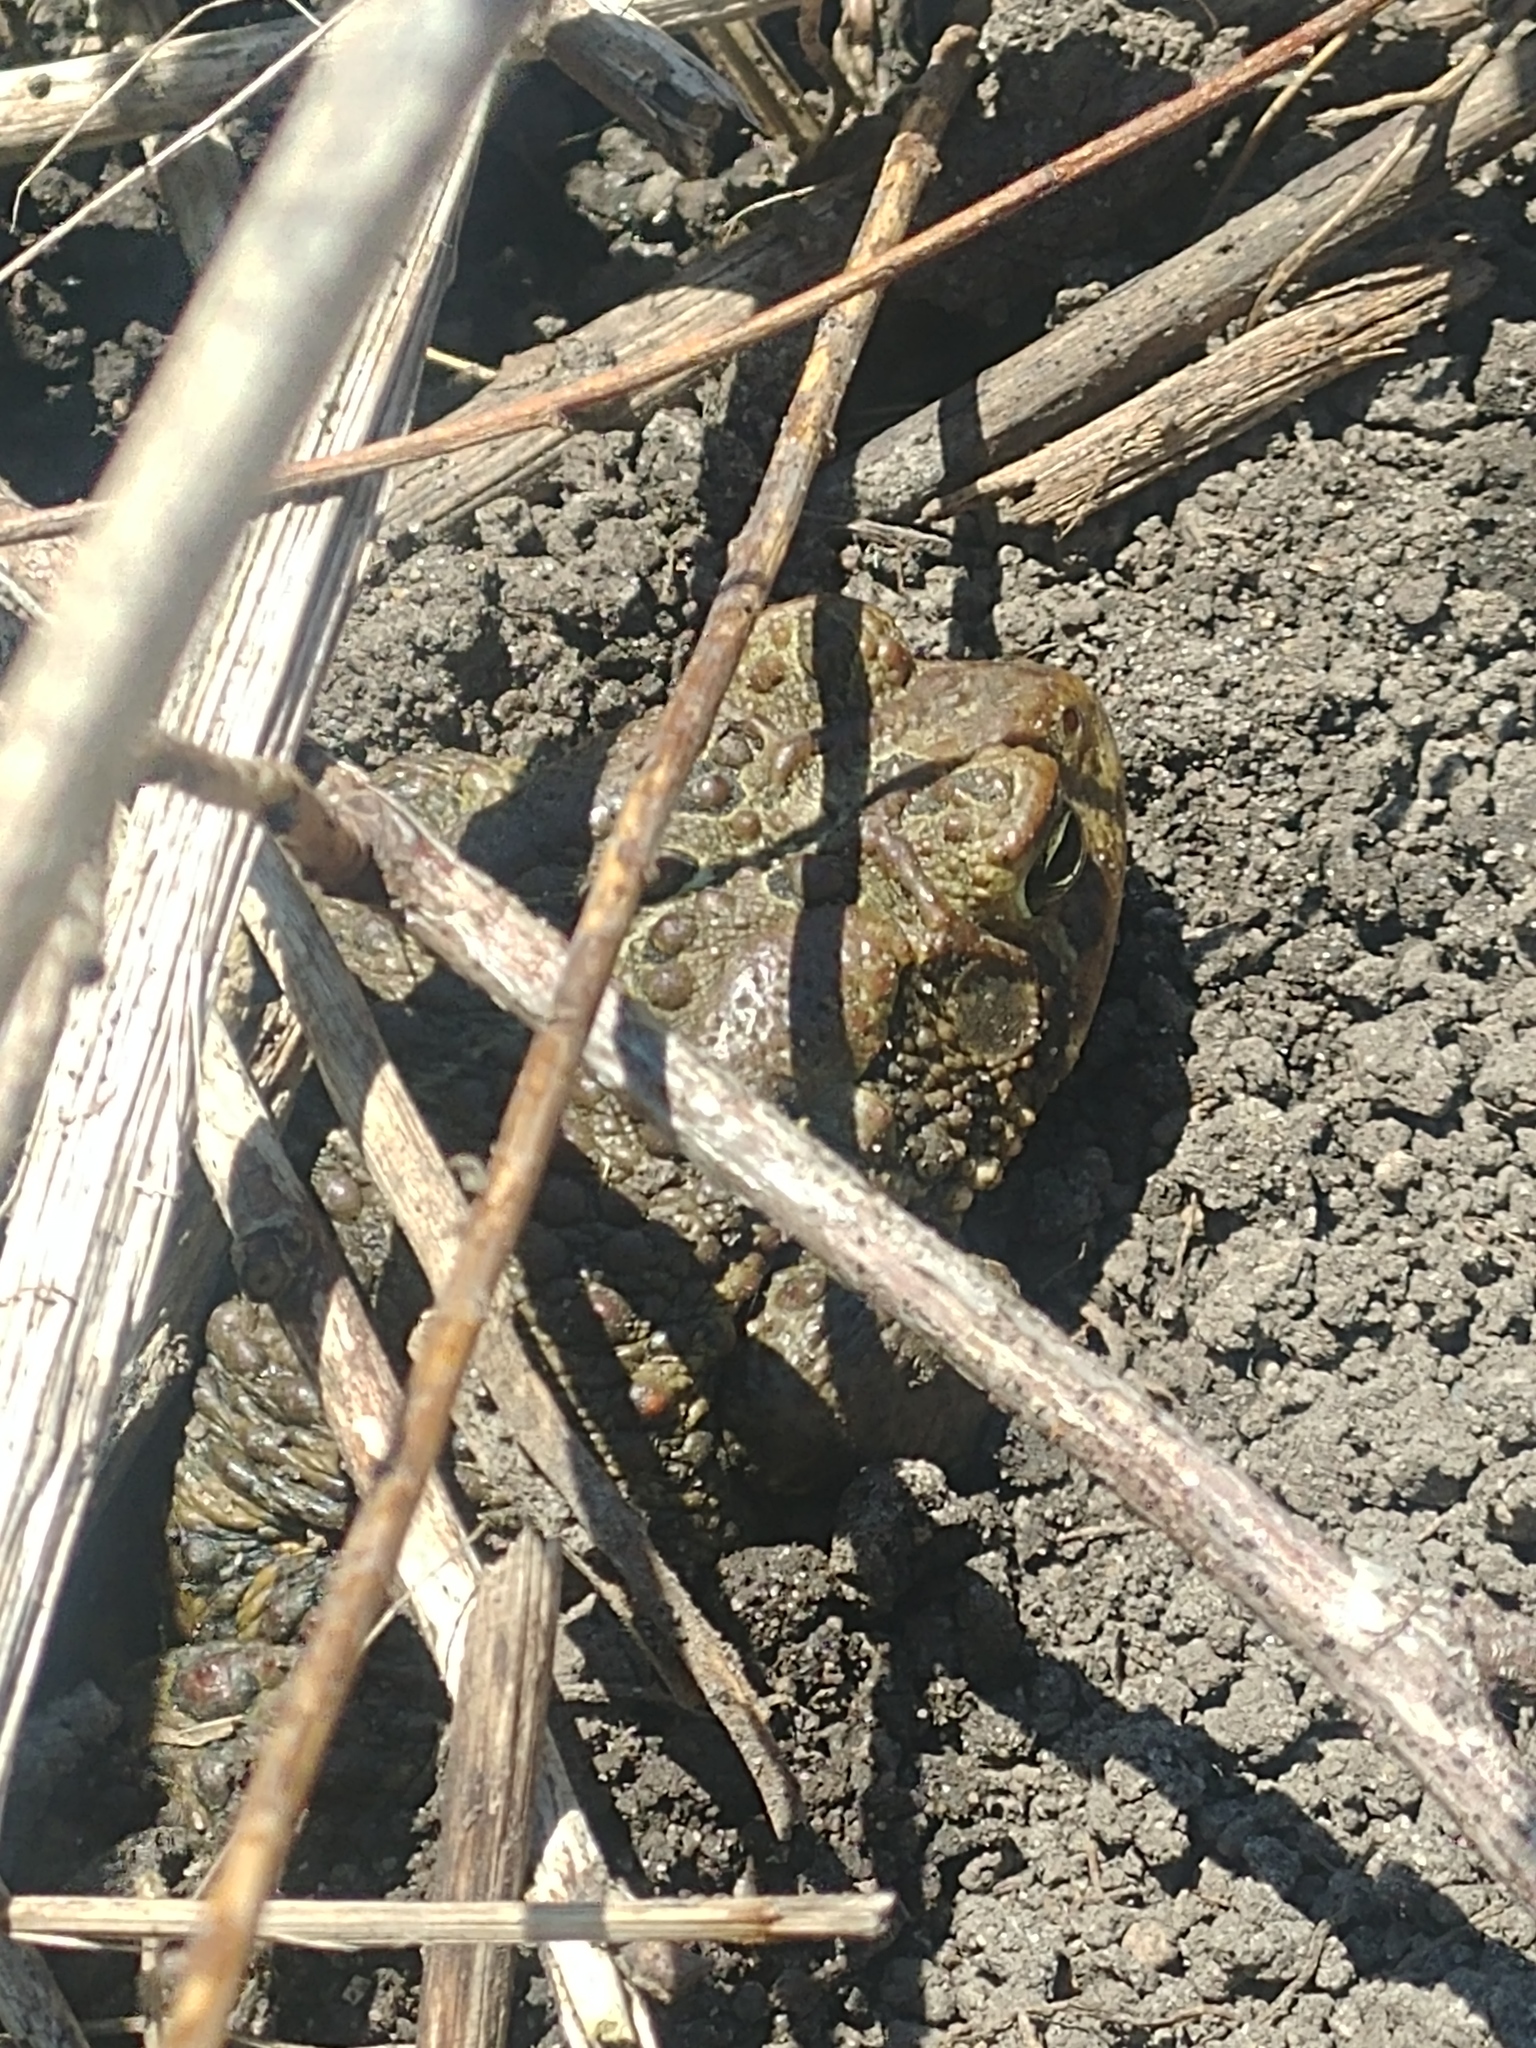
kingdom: Animalia
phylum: Chordata
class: Amphibia
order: Anura
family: Bufonidae
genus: Anaxyrus
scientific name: Anaxyrus americanus
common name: American toad
